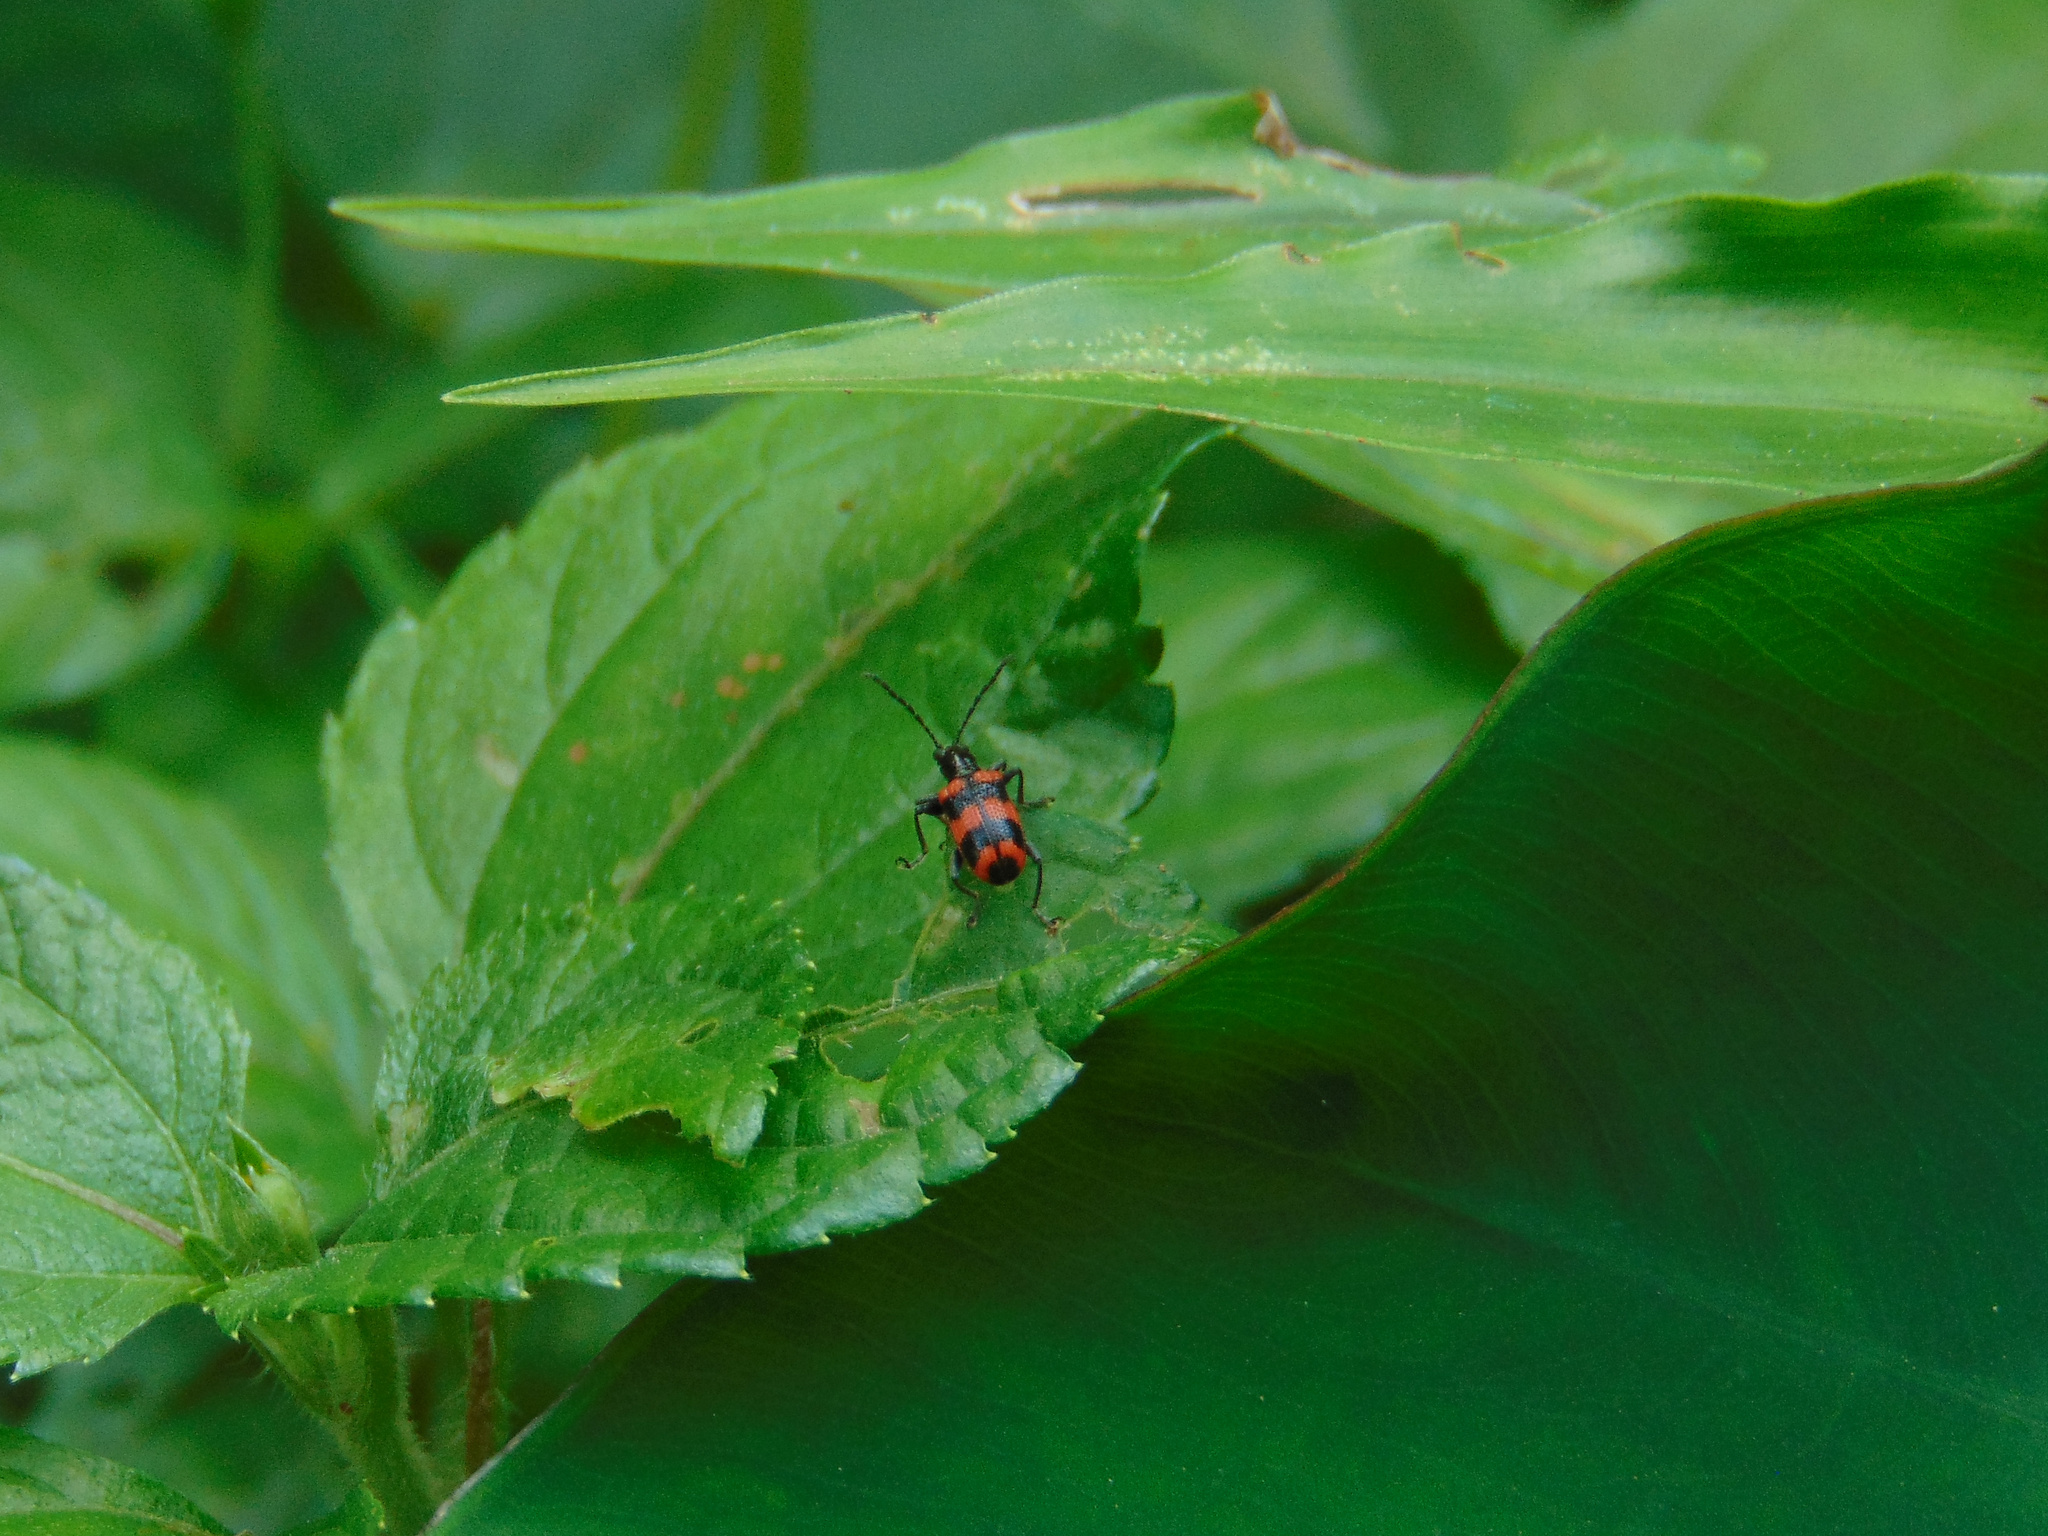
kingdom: Animalia
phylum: Arthropoda
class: Insecta
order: Coleoptera
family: Chrysomelidae
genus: Neolema
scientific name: Neolema
